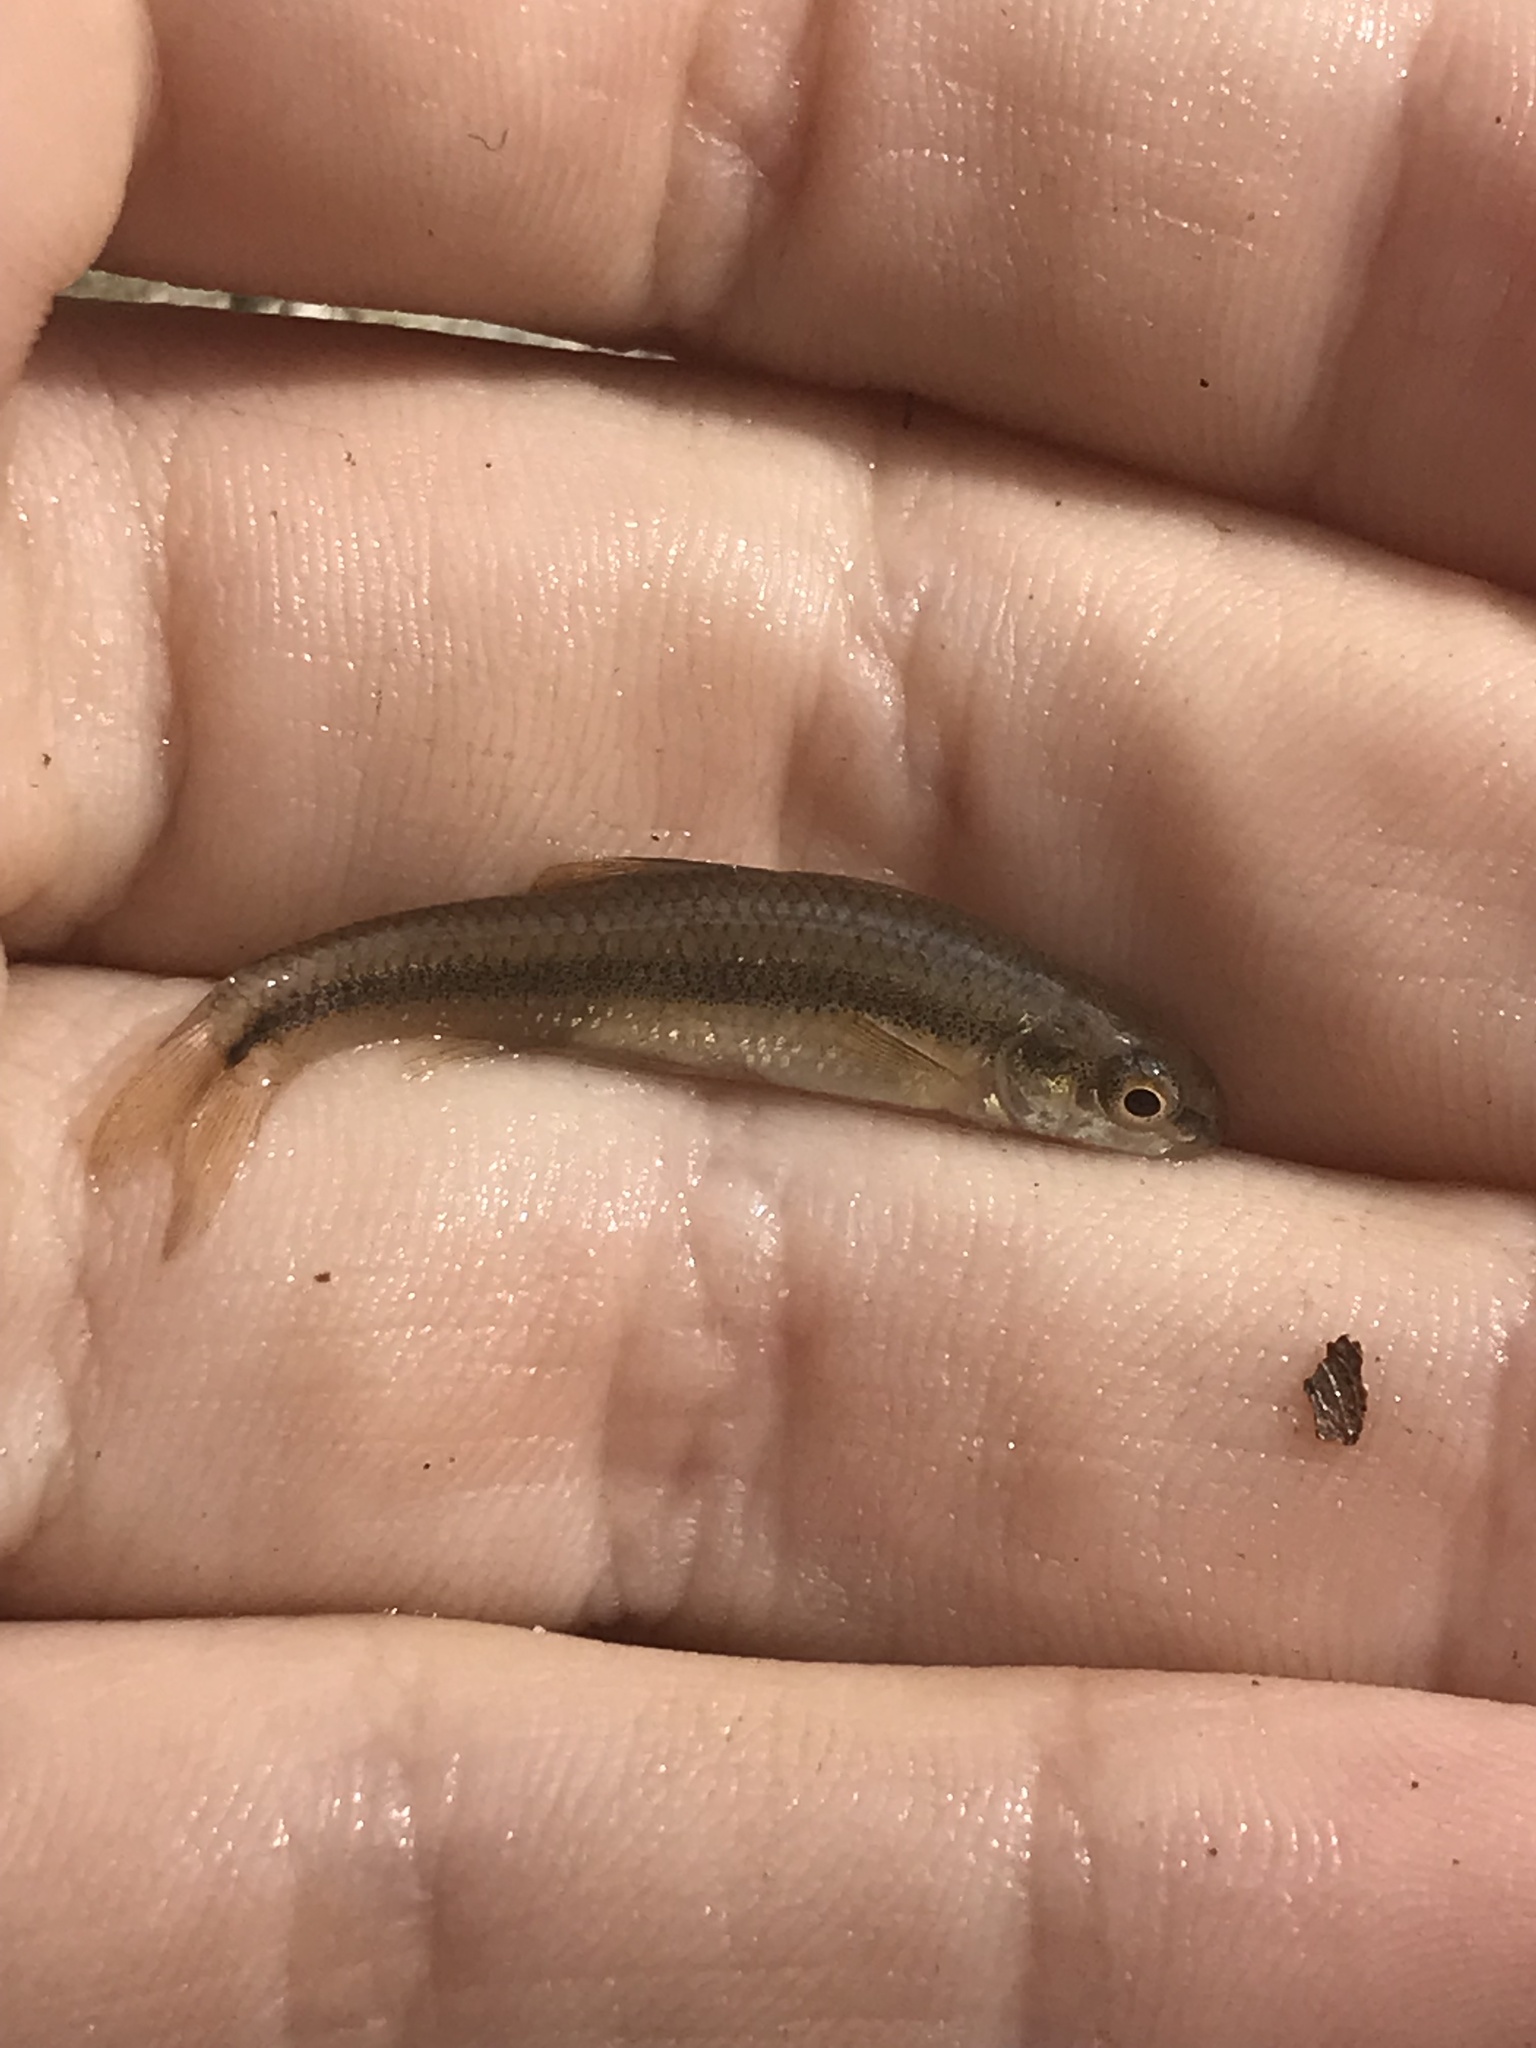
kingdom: Animalia
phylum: Chordata
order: Cypriniformes
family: Cyprinidae
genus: Pimephales
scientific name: Pimephales notatus
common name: Bluntnose minnow
